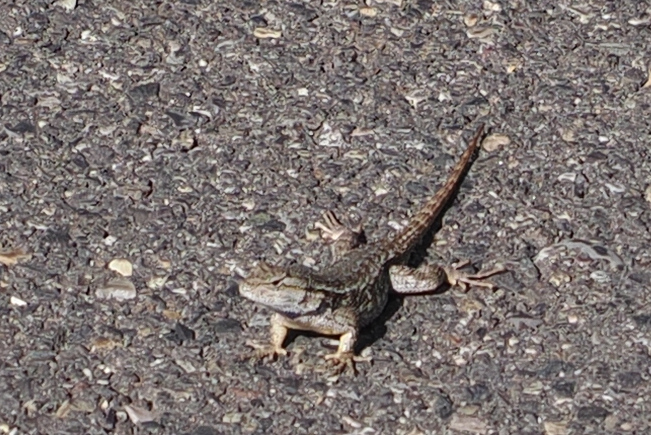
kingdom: Animalia
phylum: Chordata
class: Squamata
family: Phrynosomatidae
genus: Sceloporus
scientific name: Sceloporus occidentalis
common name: Western fence lizard
